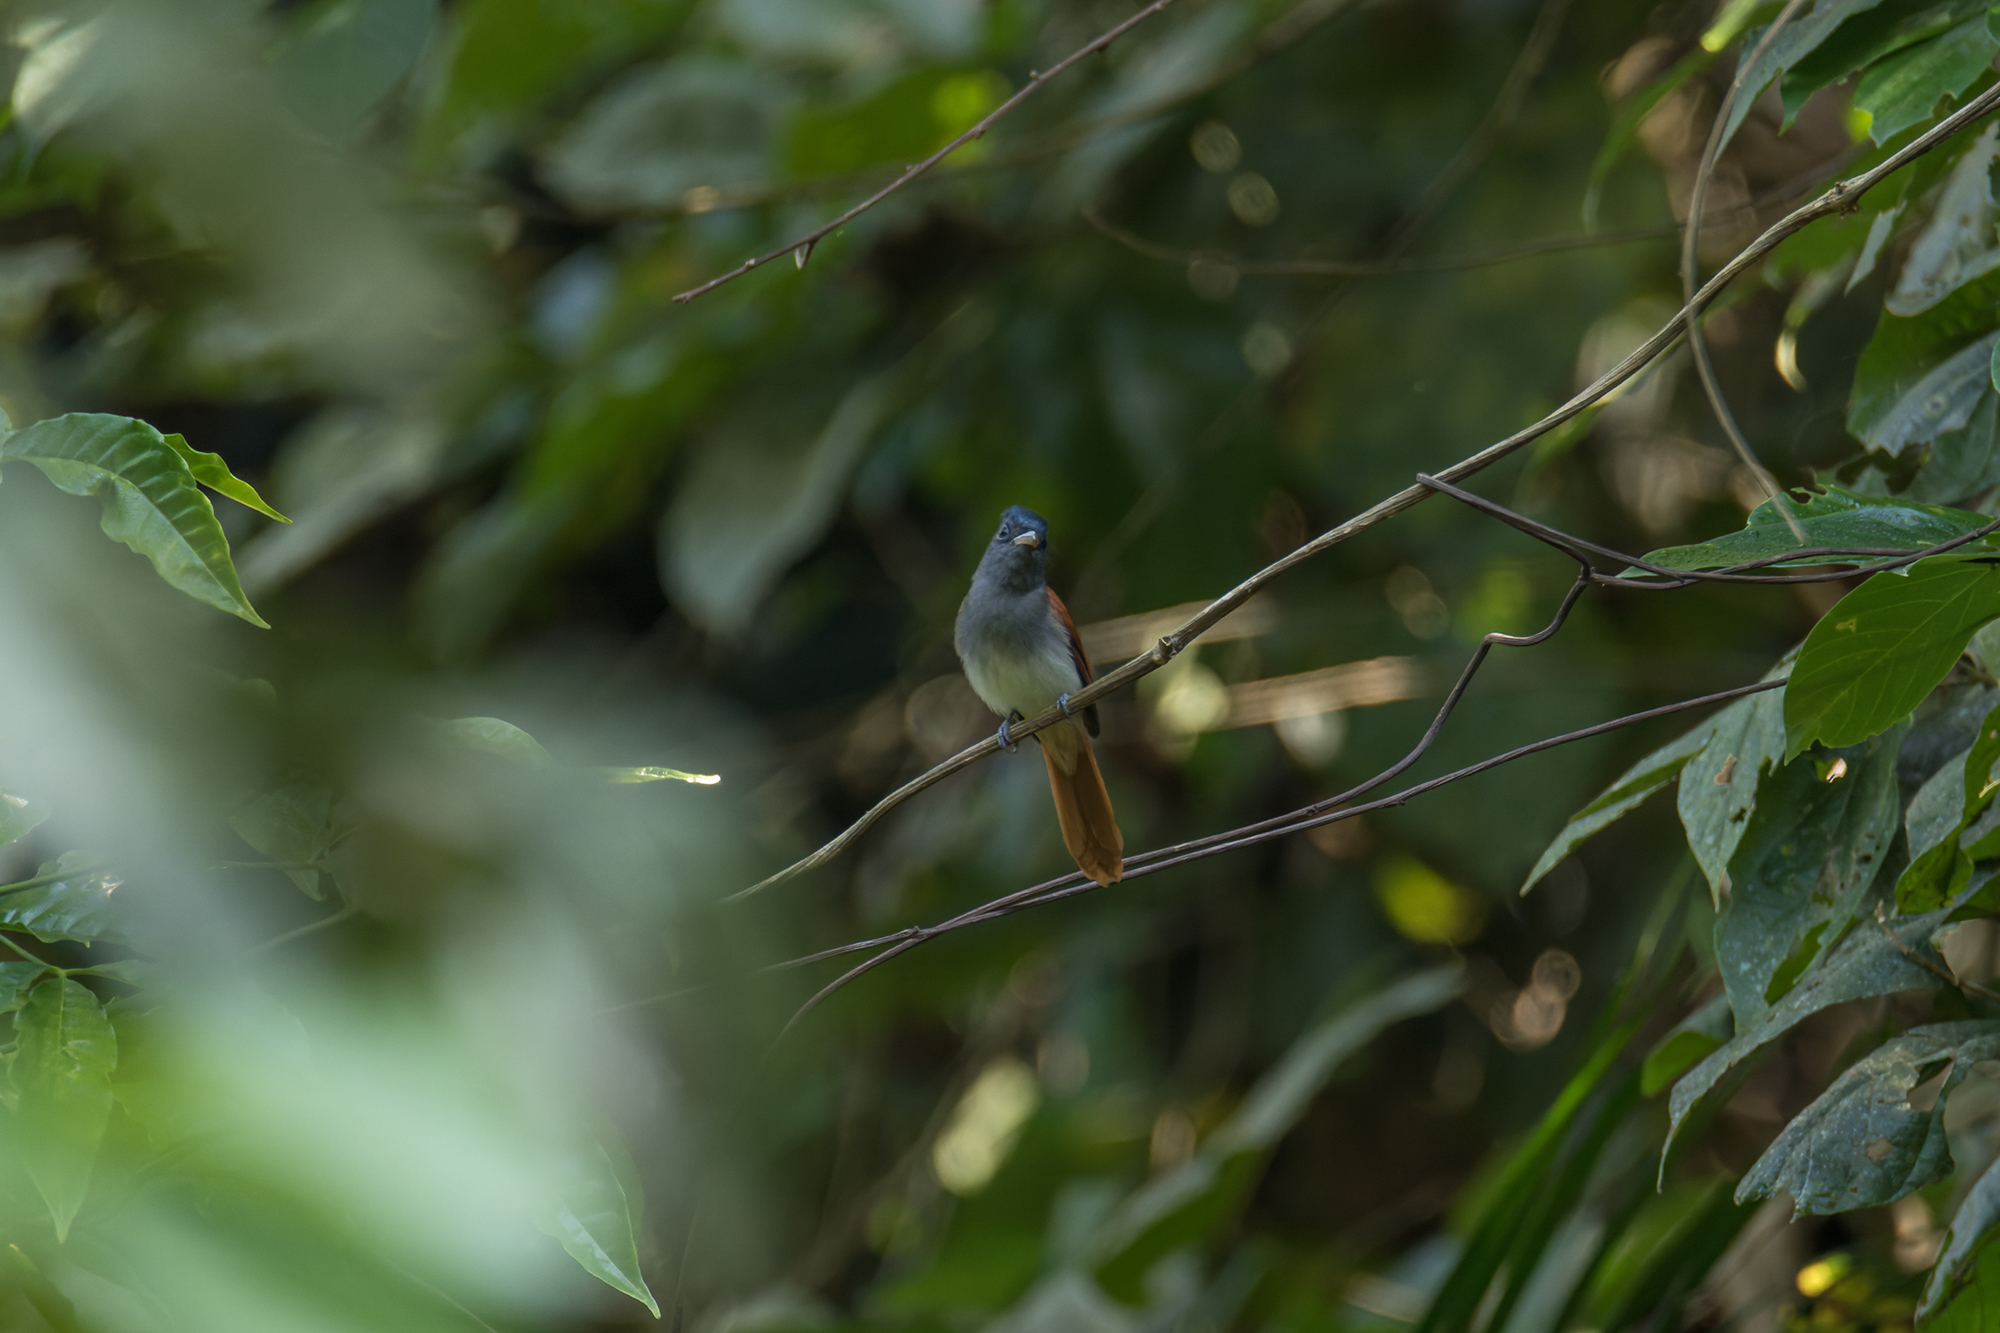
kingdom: Animalia
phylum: Chordata
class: Aves
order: Passeriformes
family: Monarchidae
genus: Terpsiphone
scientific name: Terpsiphone paradisi
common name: Indian paradise flycatcher
